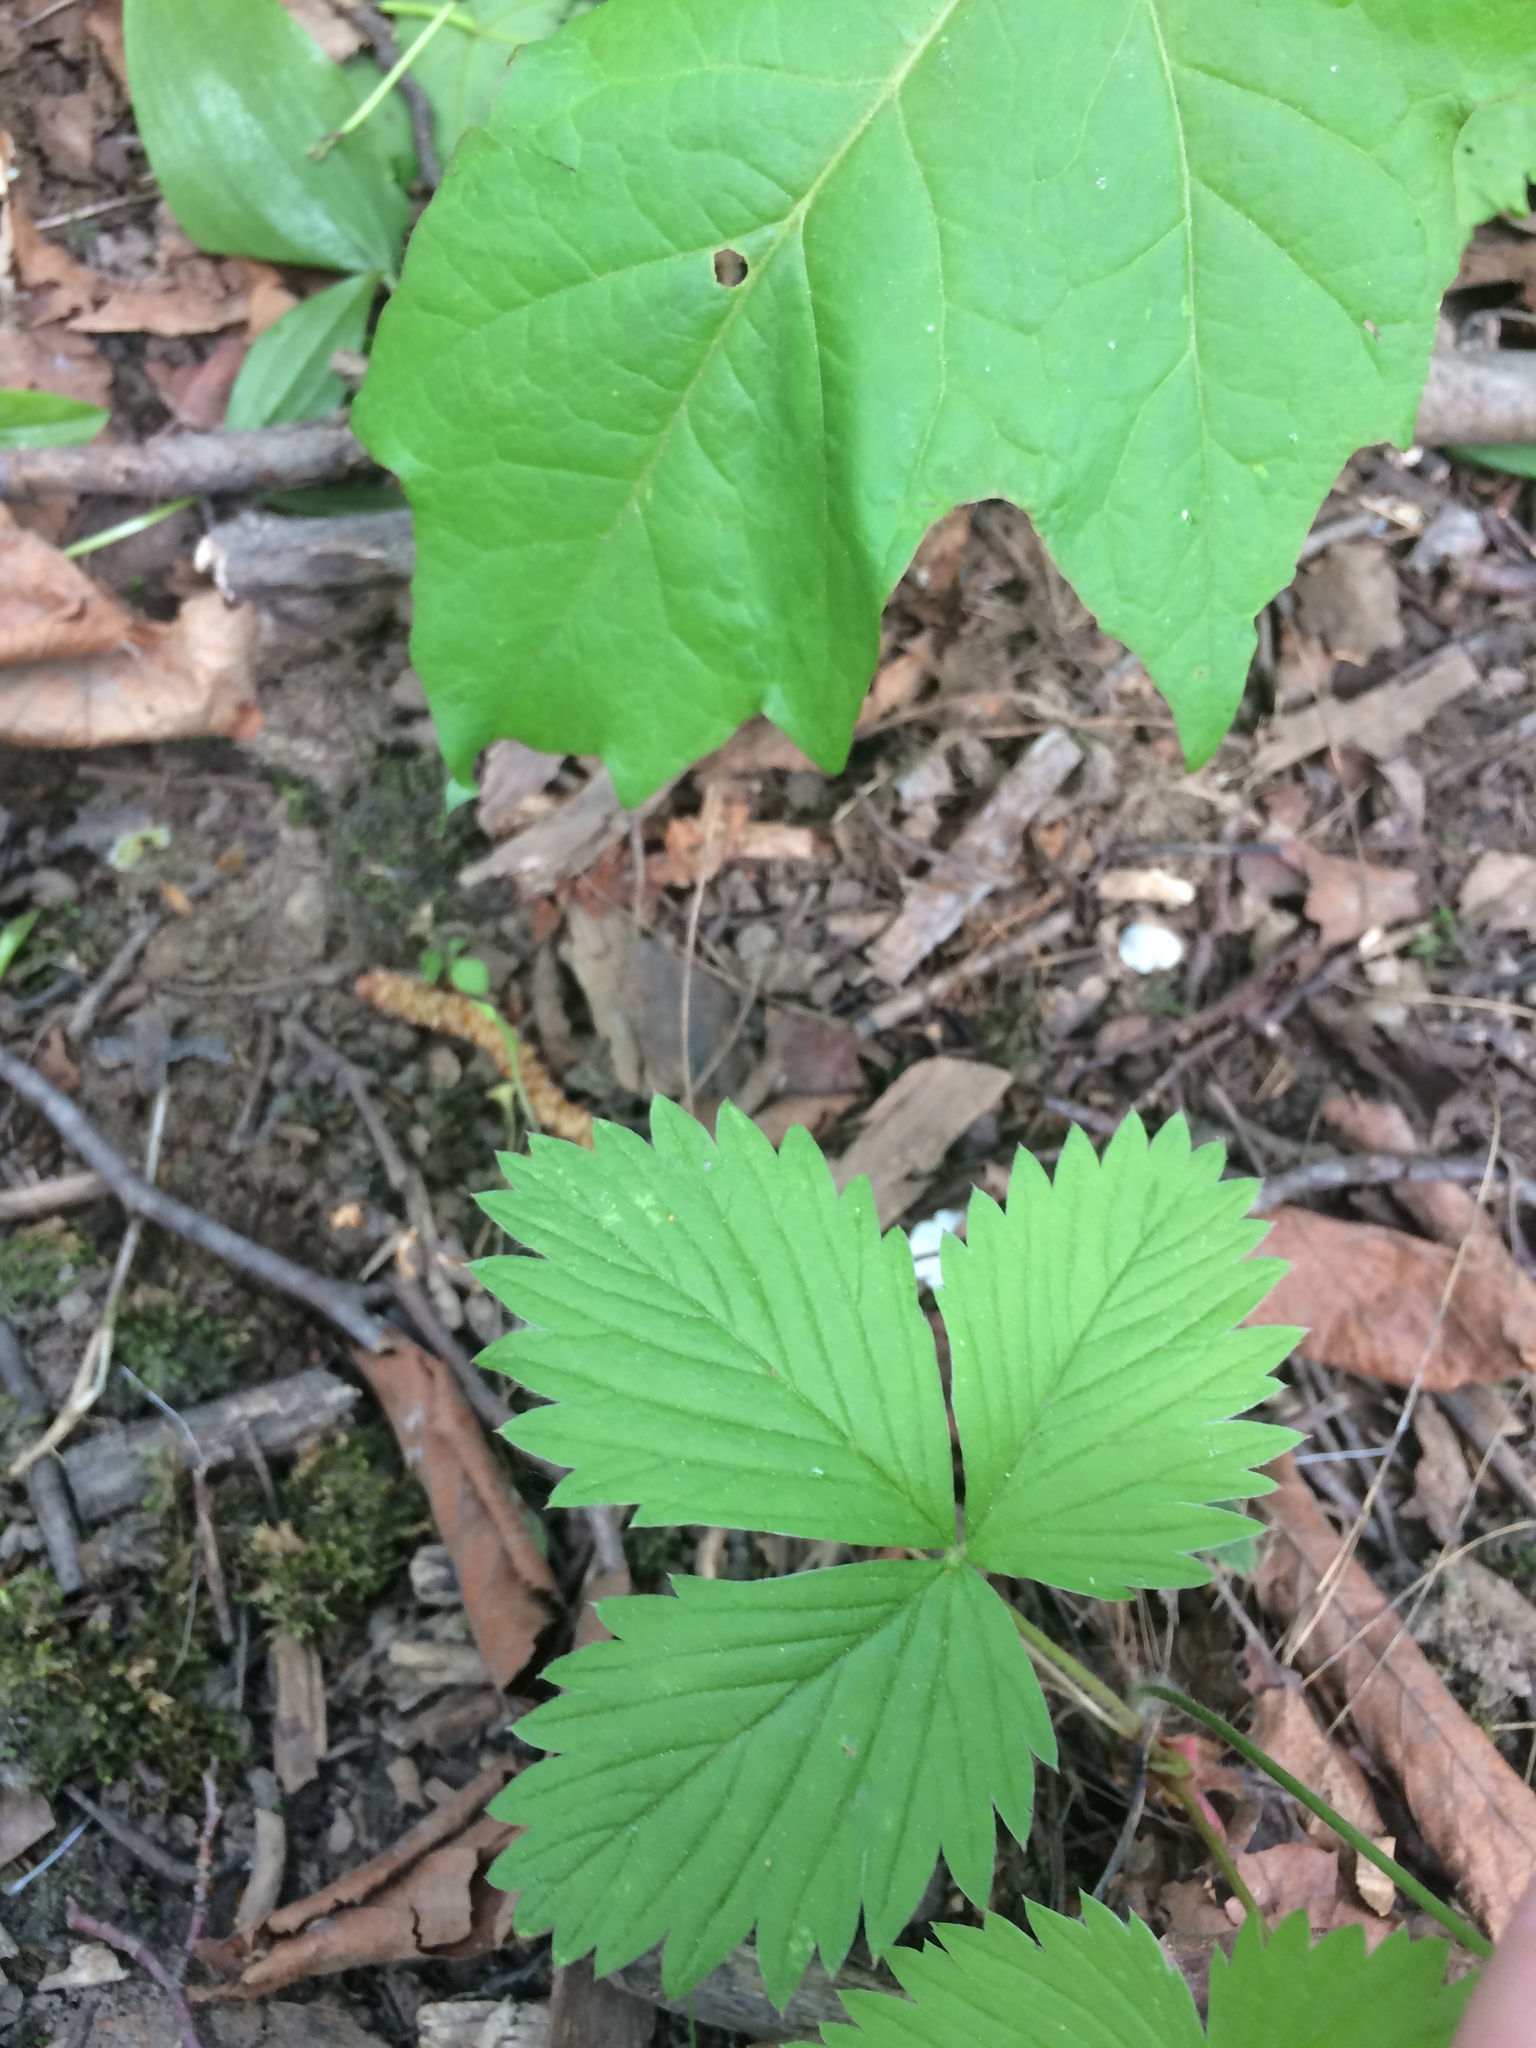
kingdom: Plantae
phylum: Tracheophyta
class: Magnoliopsida
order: Rosales
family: Rosaceae
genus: Fragaria
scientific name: Fragaria vesca
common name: Wild strawberry
